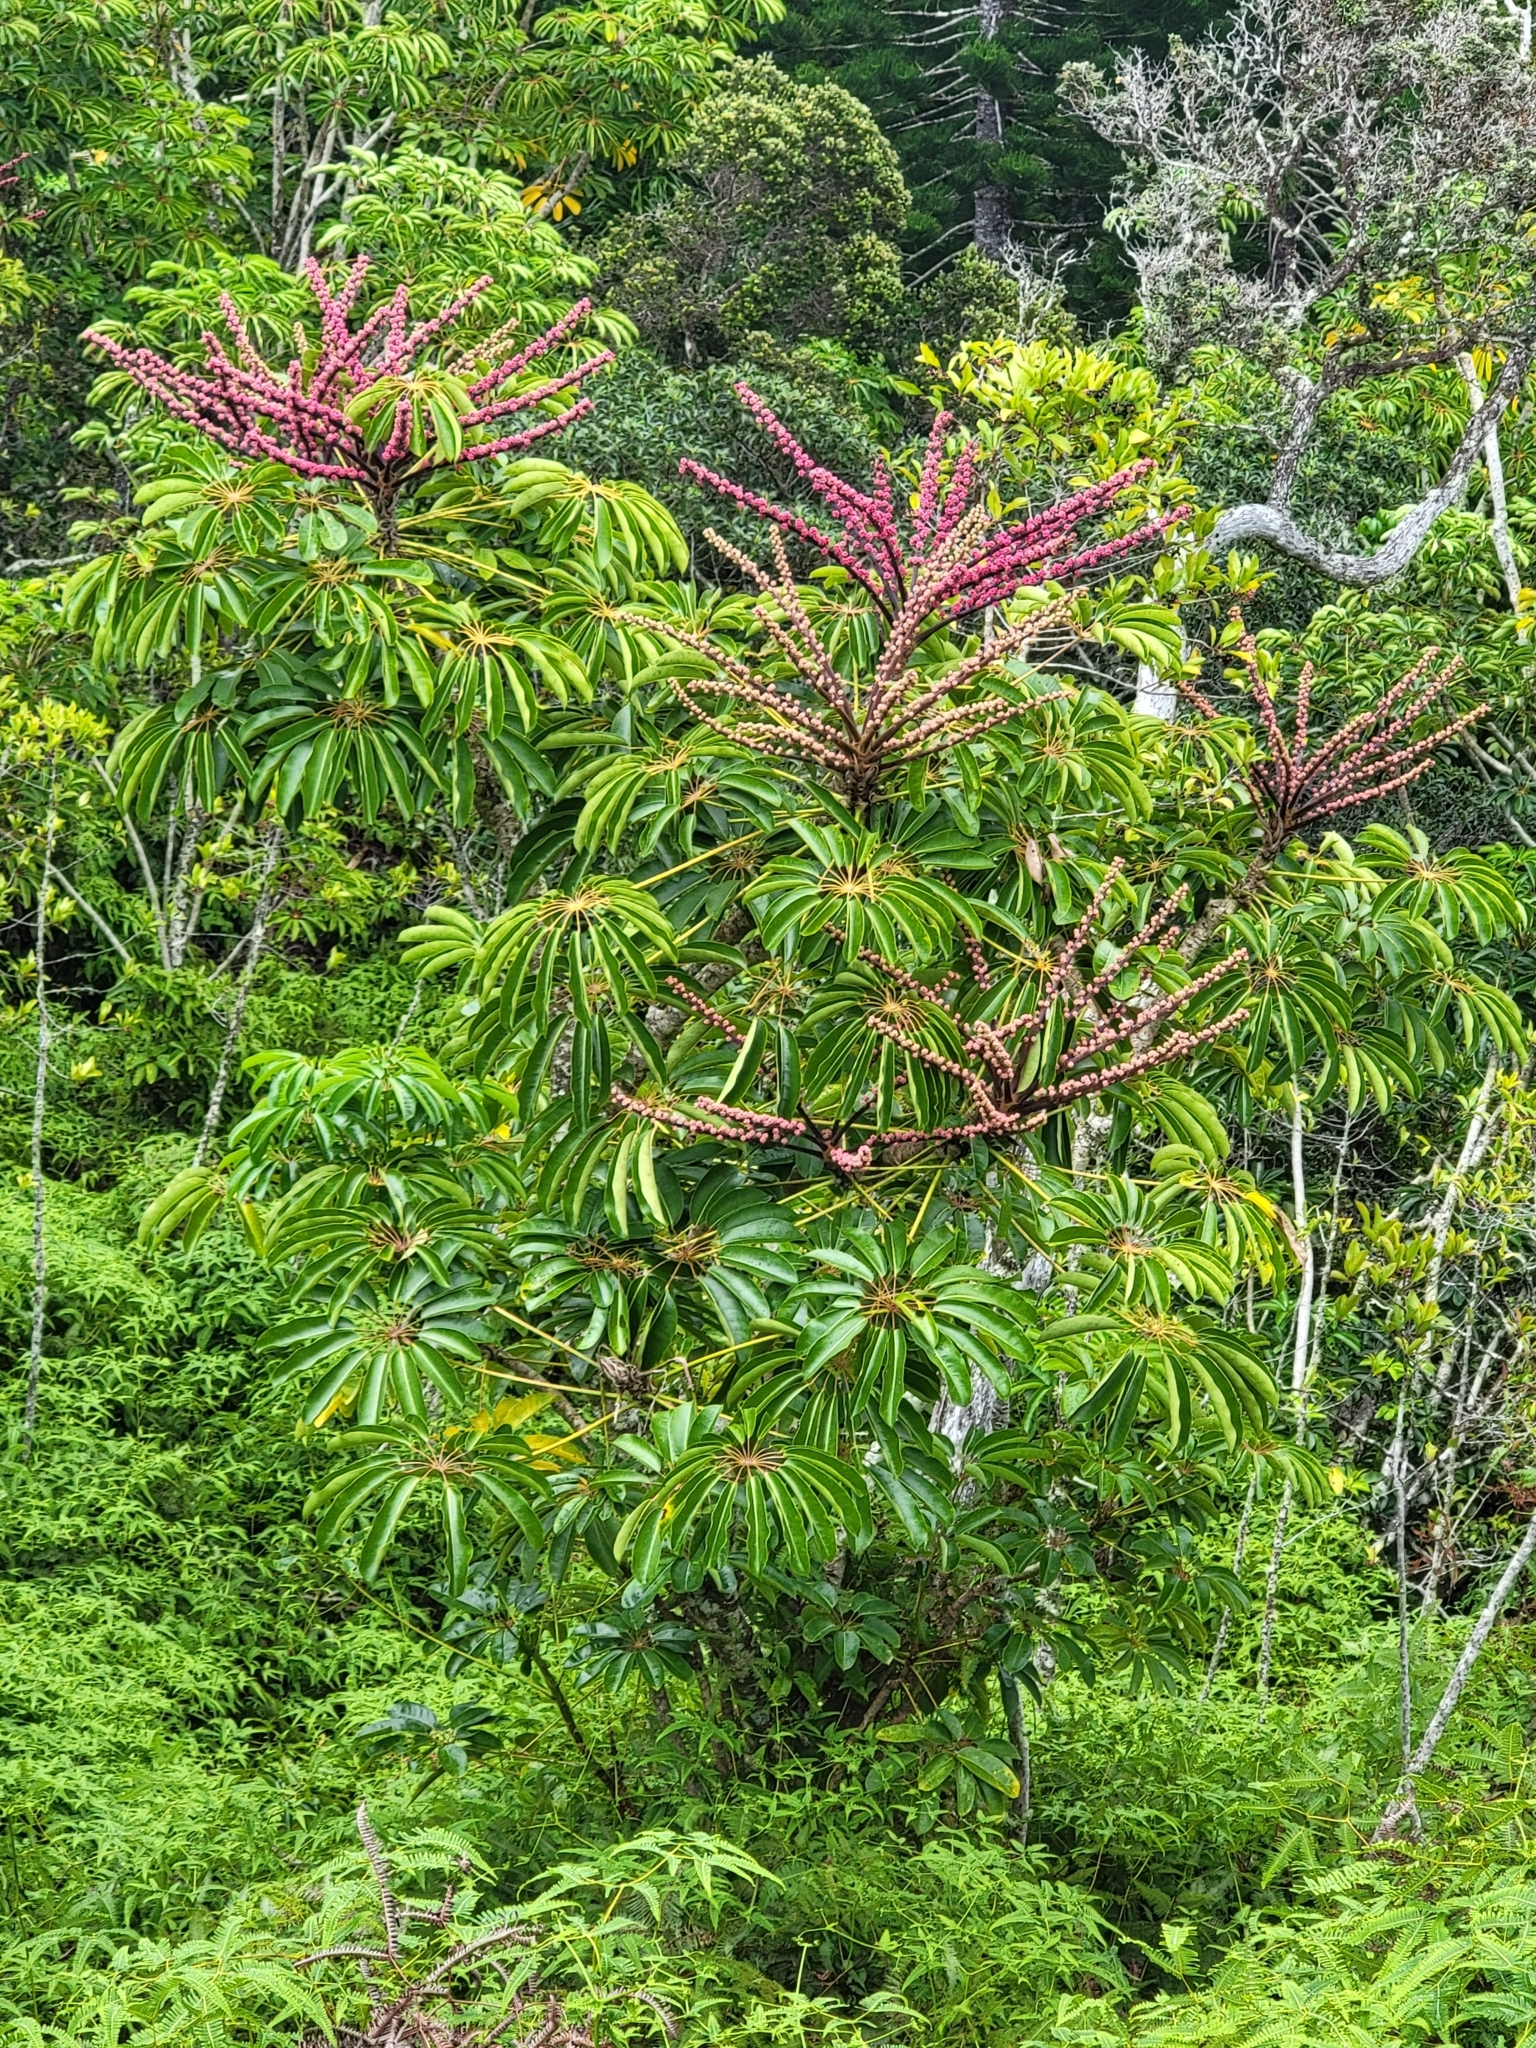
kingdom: Plantae
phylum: Tracheophyta
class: Magnoliopsida
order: Apiales
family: Araliaceae
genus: Heptapleurum
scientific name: Heptapleurum actinophyllum
